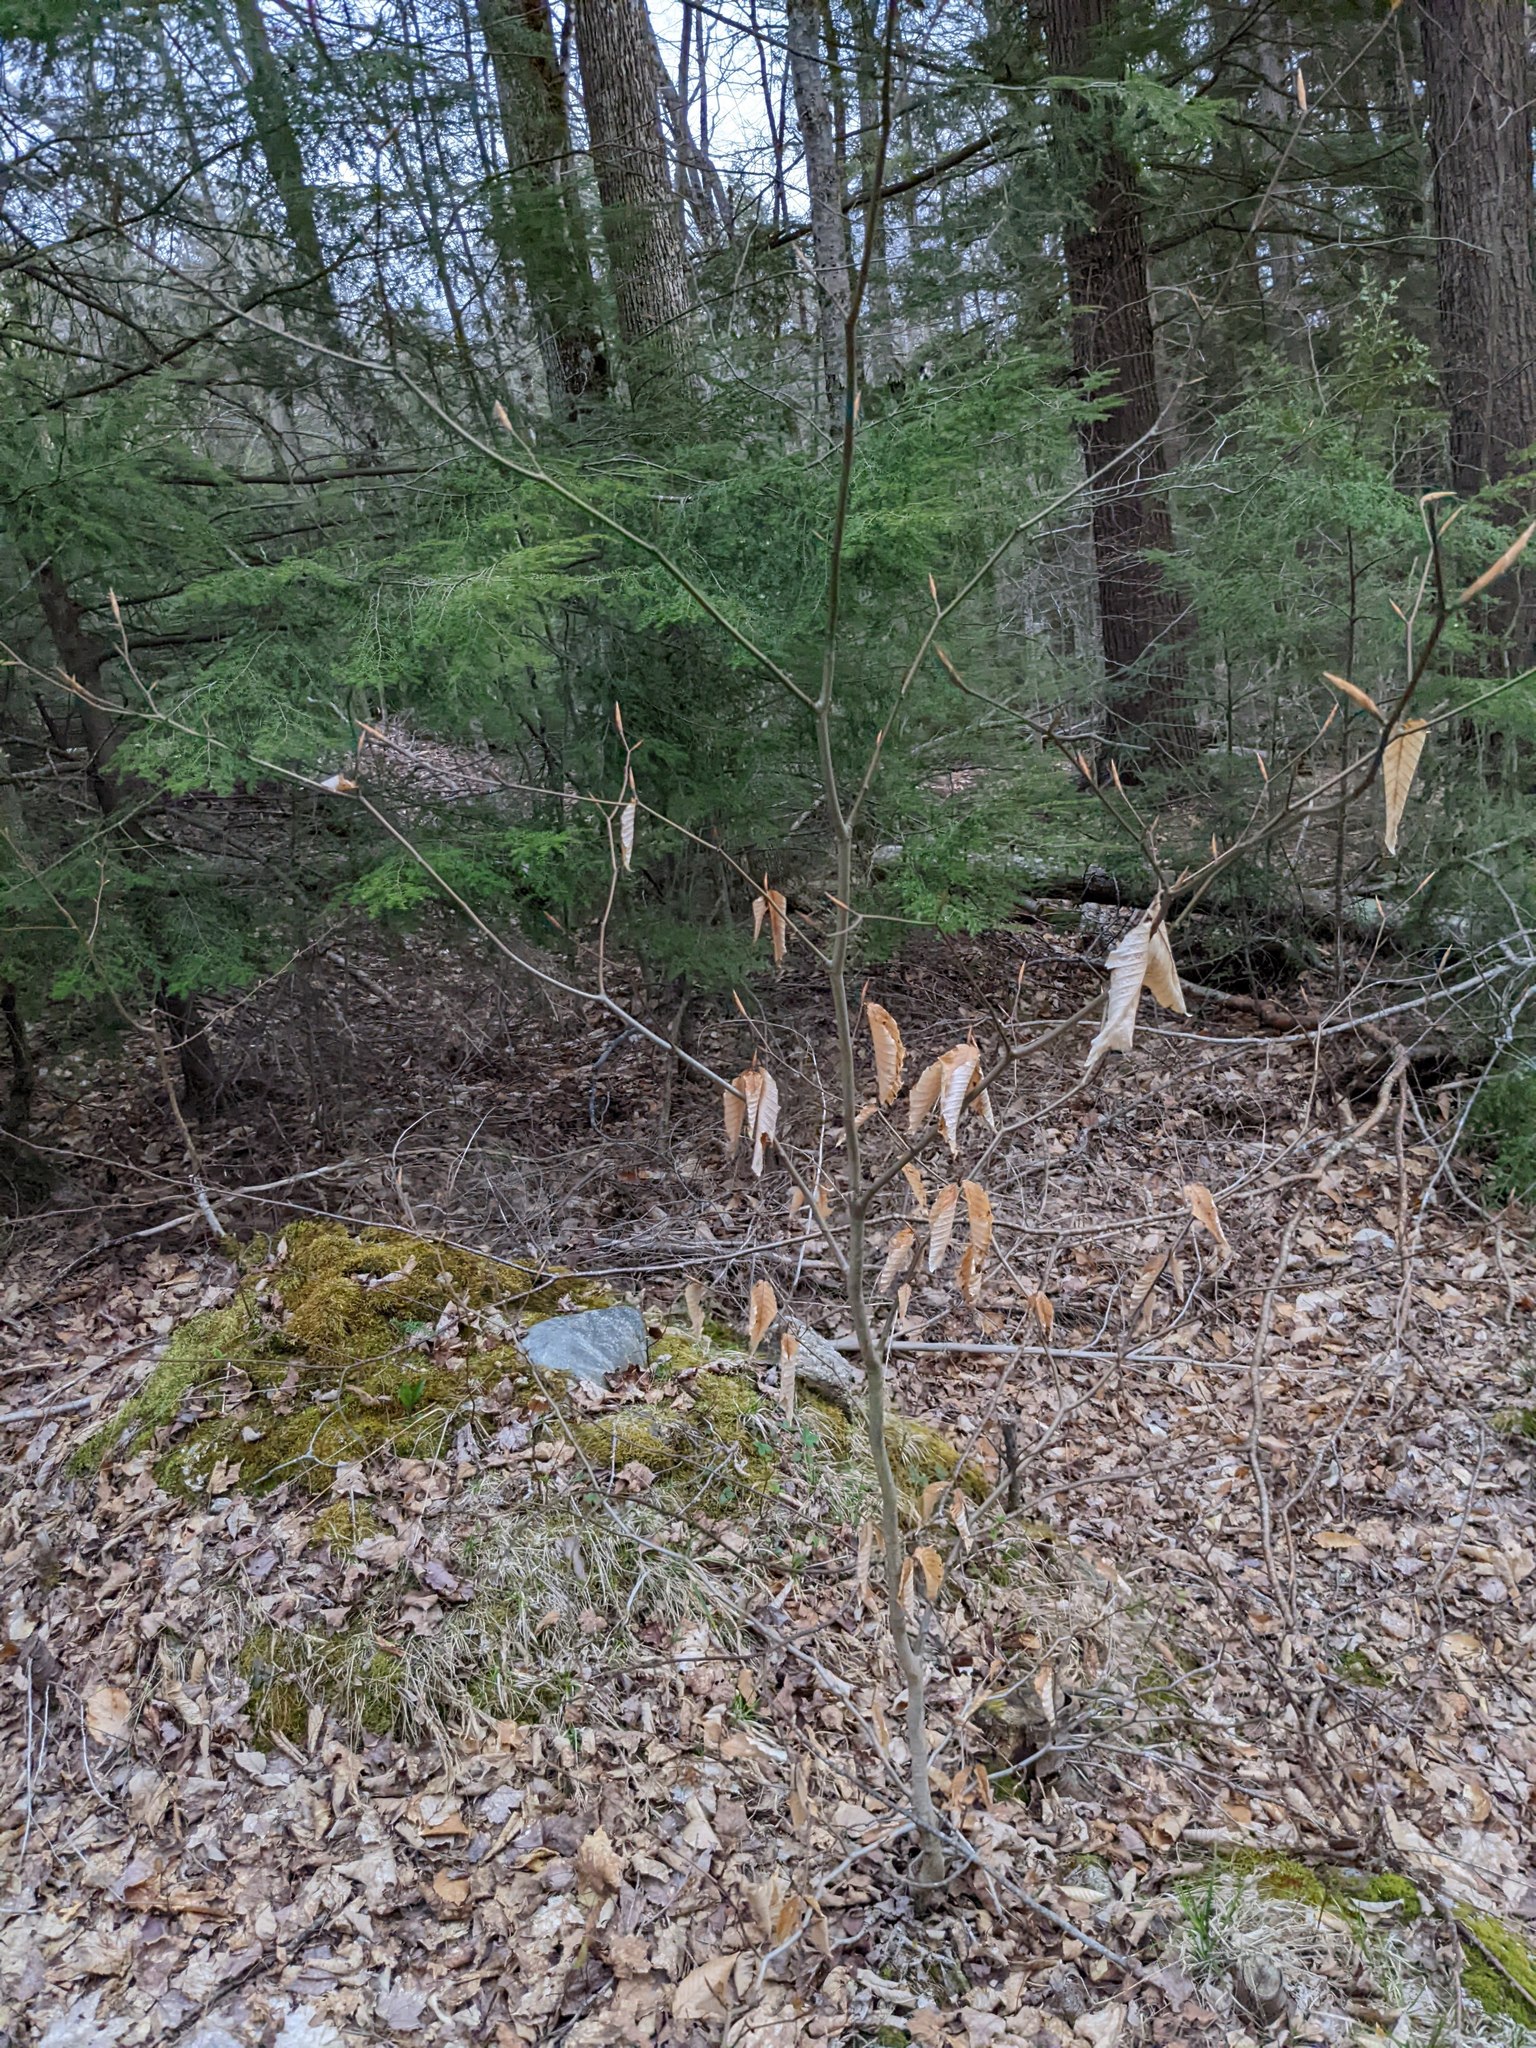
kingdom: Plantae
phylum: Tracheophyta
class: Magnoliopsida
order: Fagales
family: Fagaceae
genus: Fagus
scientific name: Fagus grandifolia
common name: American beech
